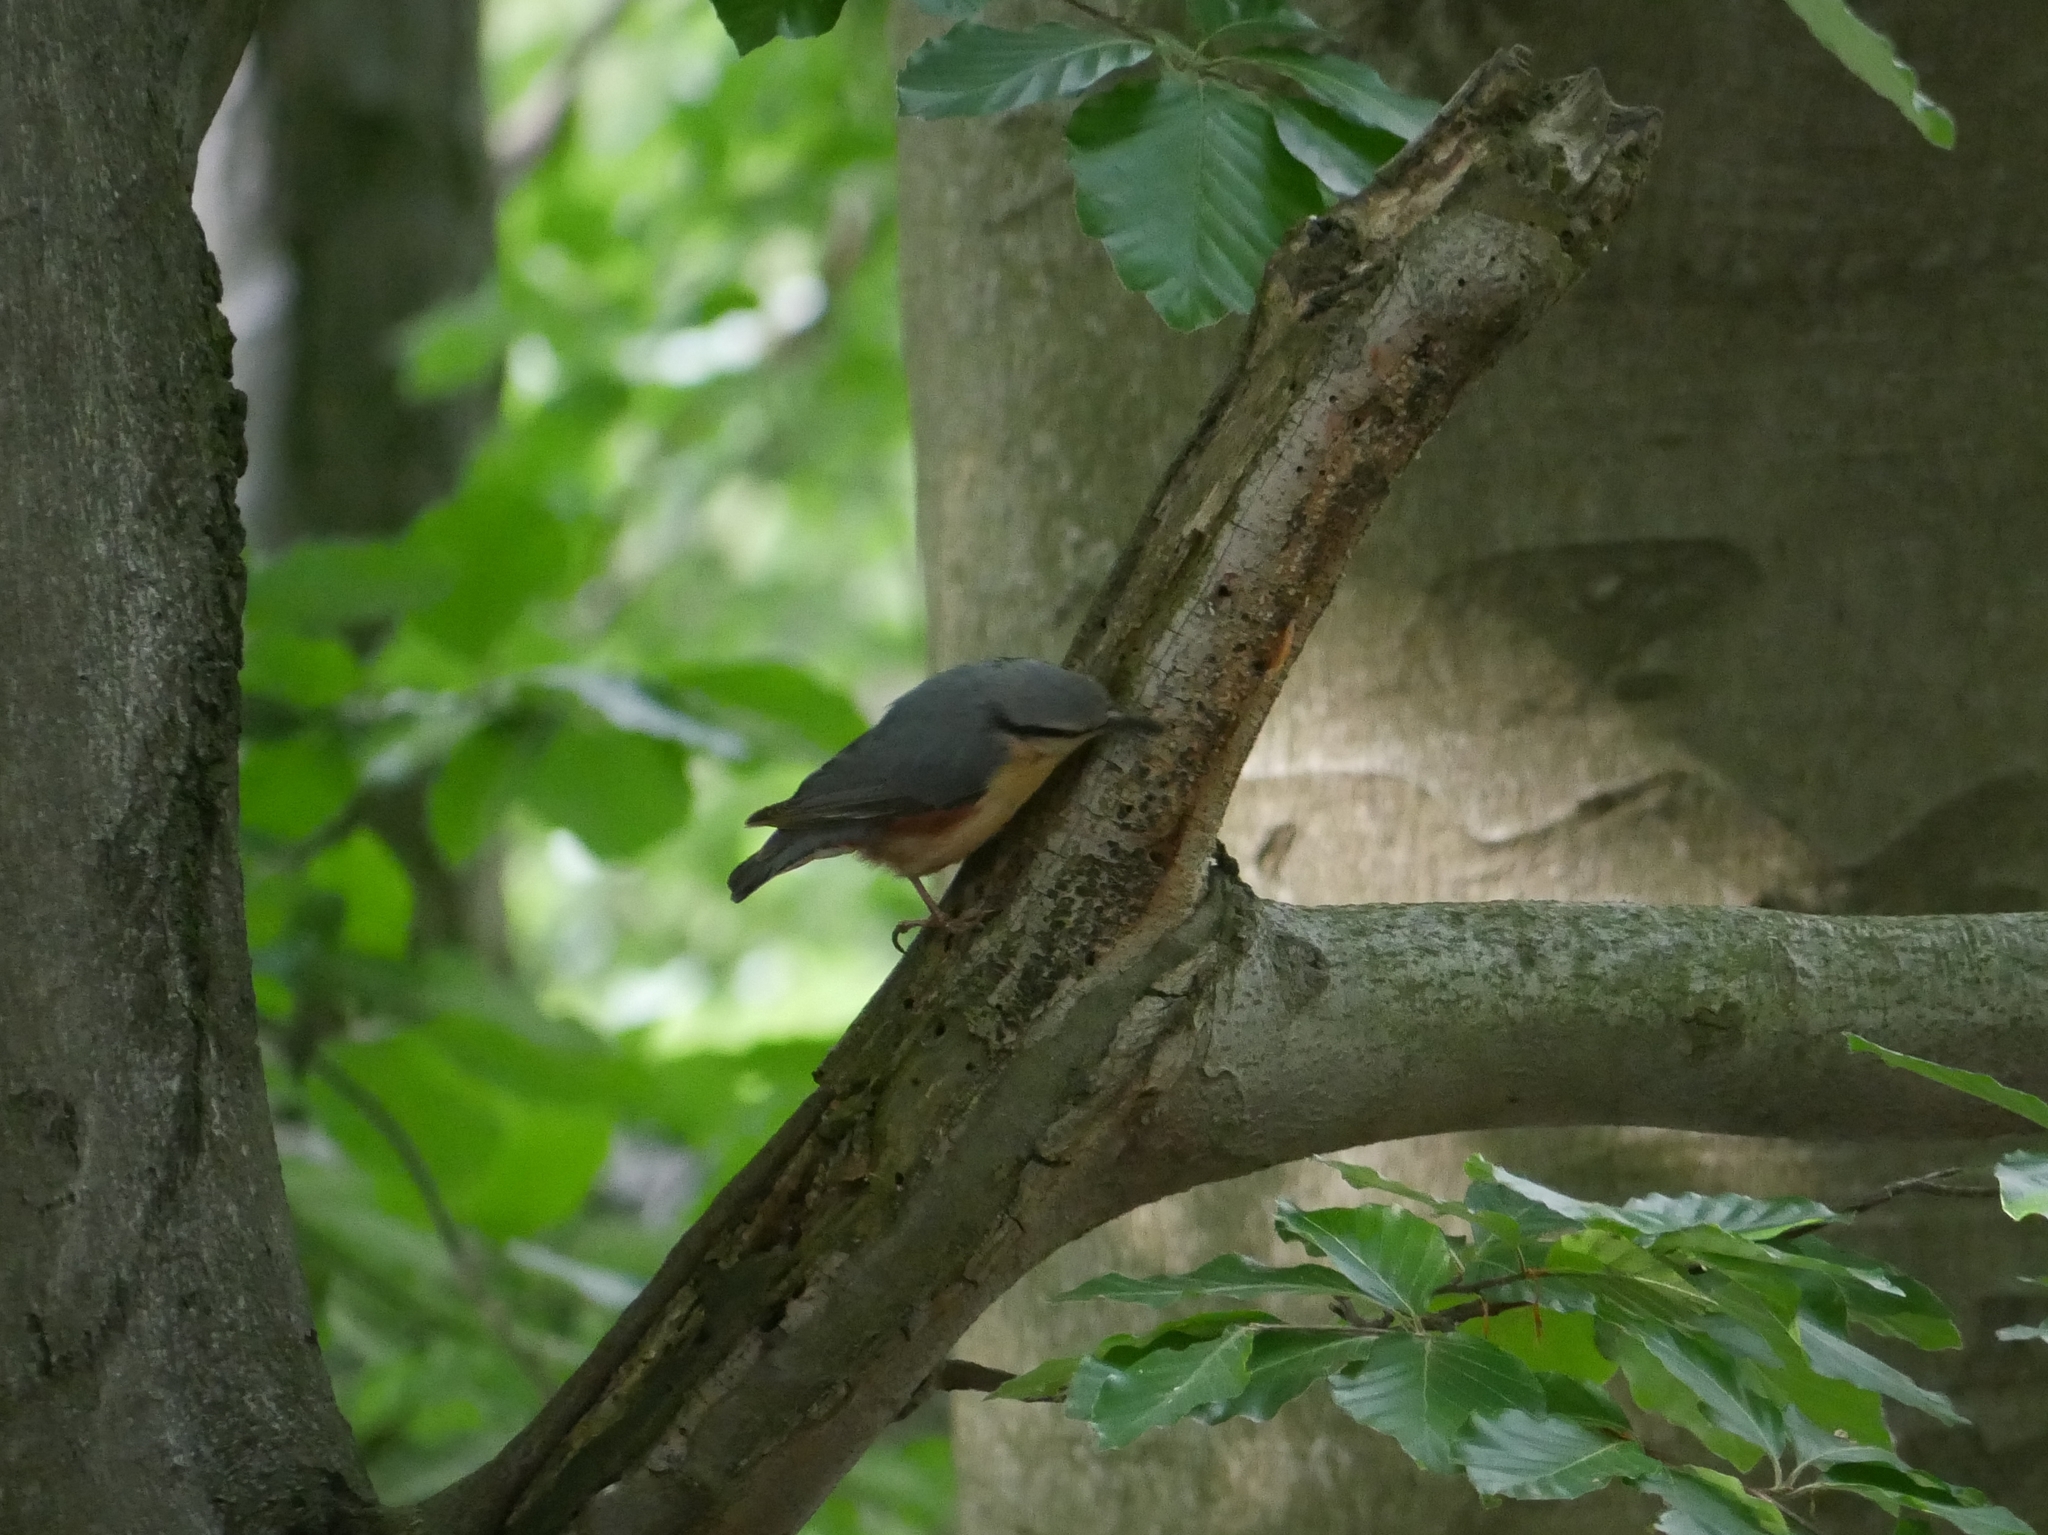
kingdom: Animalia
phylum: Chordata
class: Aves
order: Passeriformes
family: Sittidae
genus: Sitta
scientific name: Sitta europaea
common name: Eurasian nuthatch
